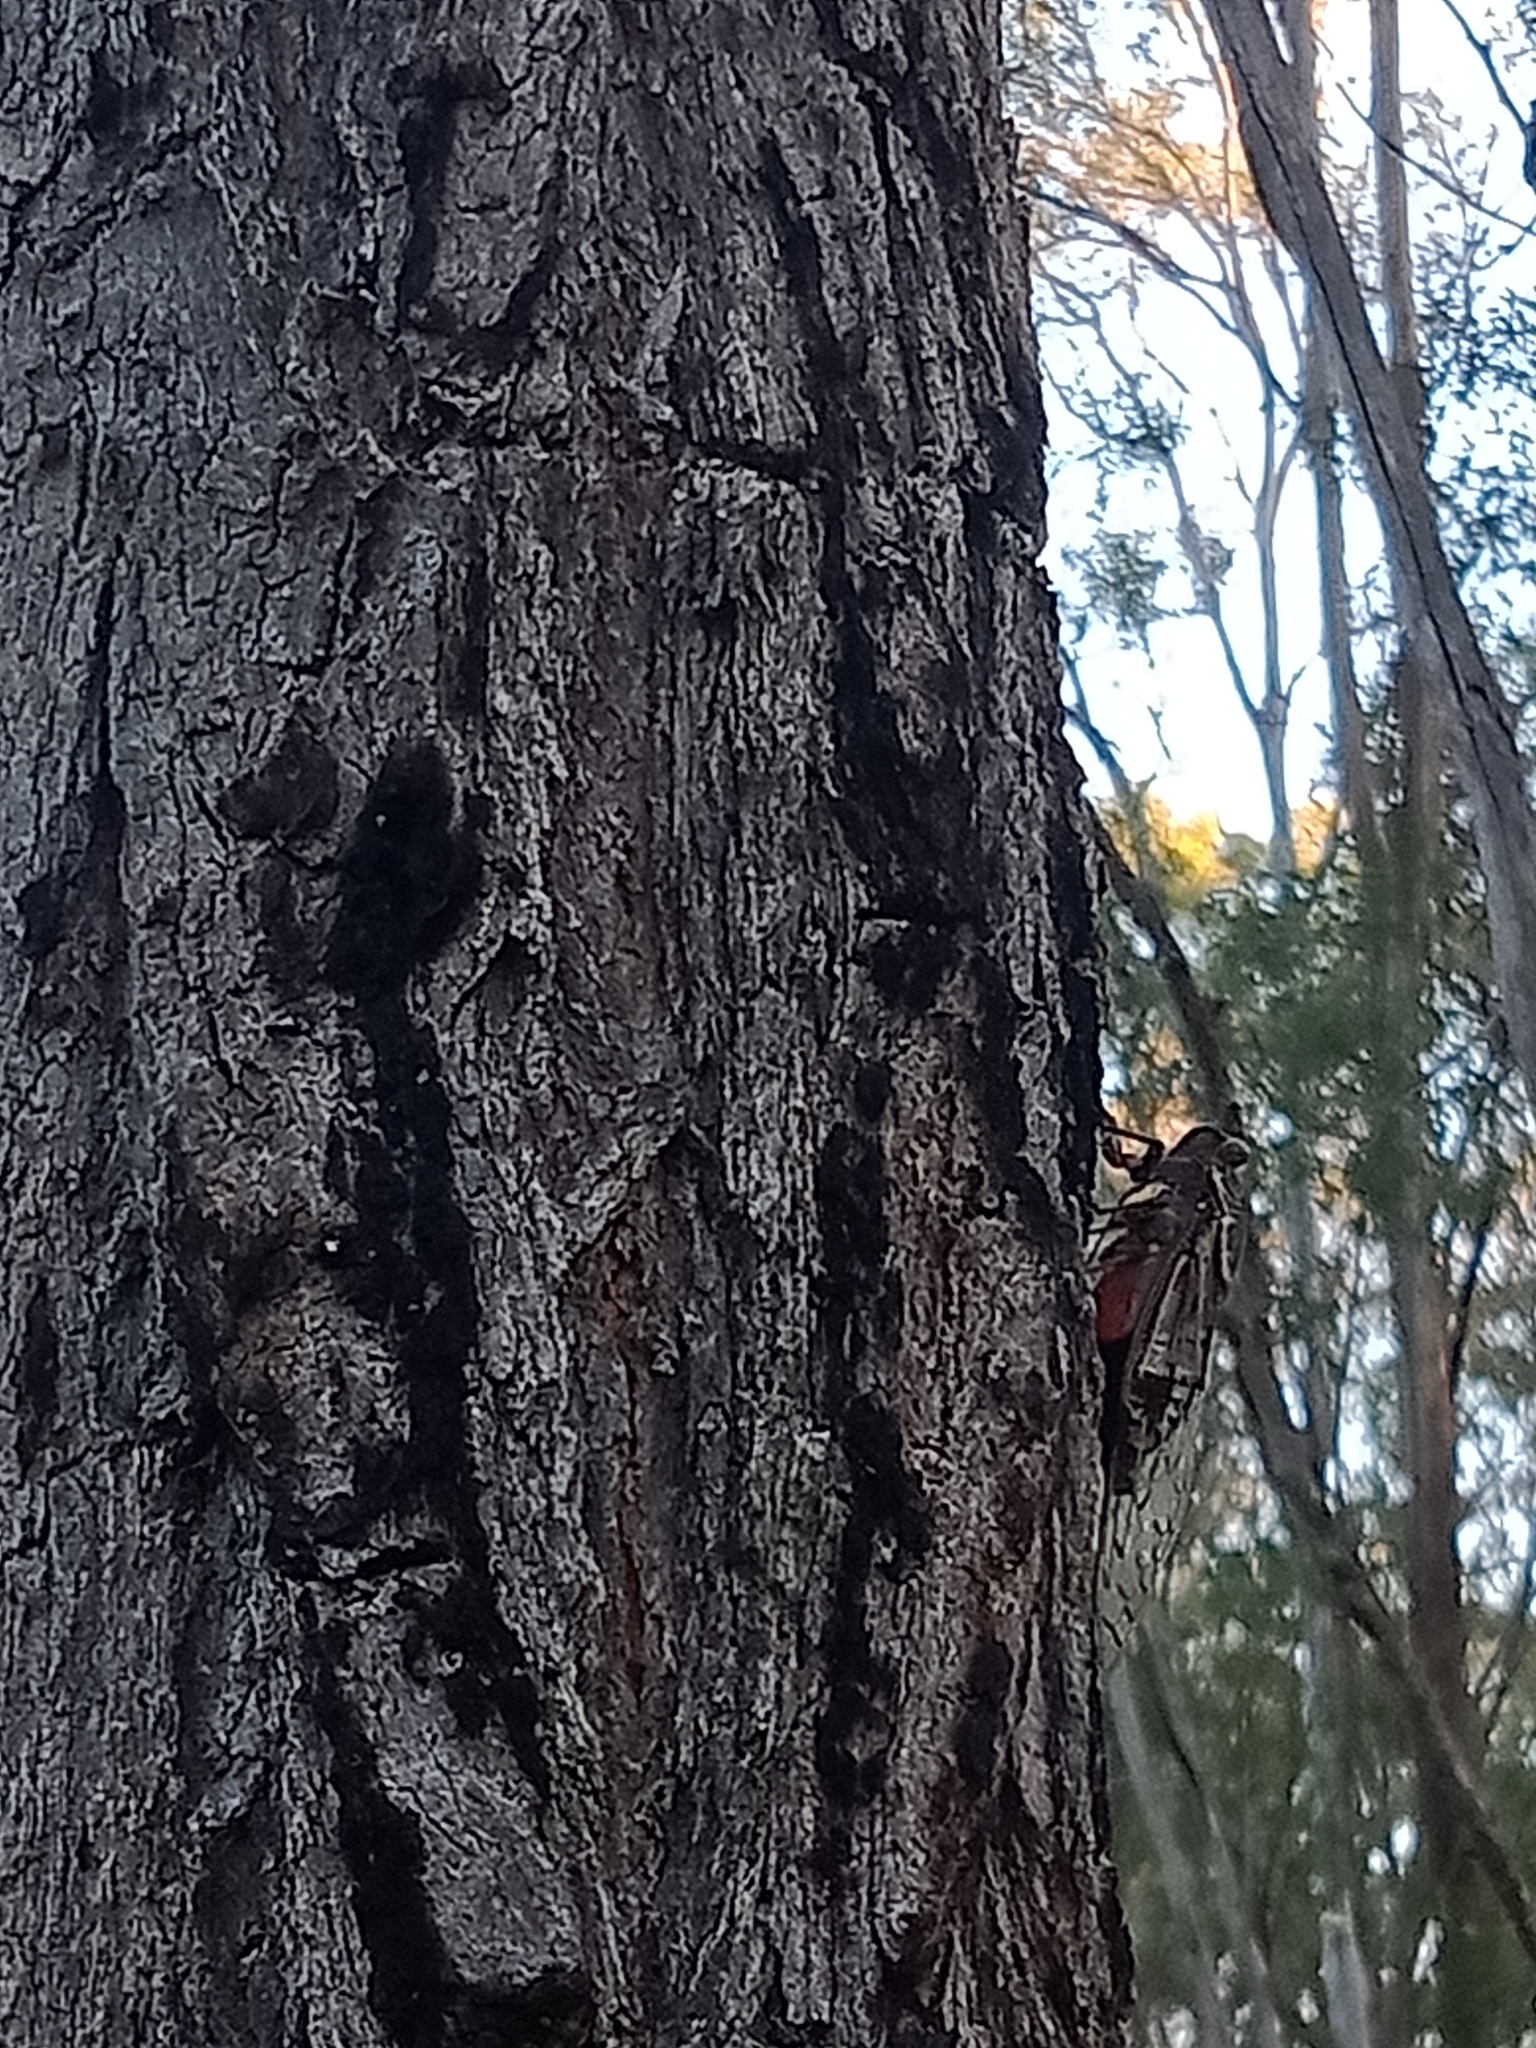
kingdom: Animalia
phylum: Arthropoda
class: Insecta
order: Hemiptera
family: Cicadidae
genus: Henicopsaltria
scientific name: Henicopsaltria eydouxii
